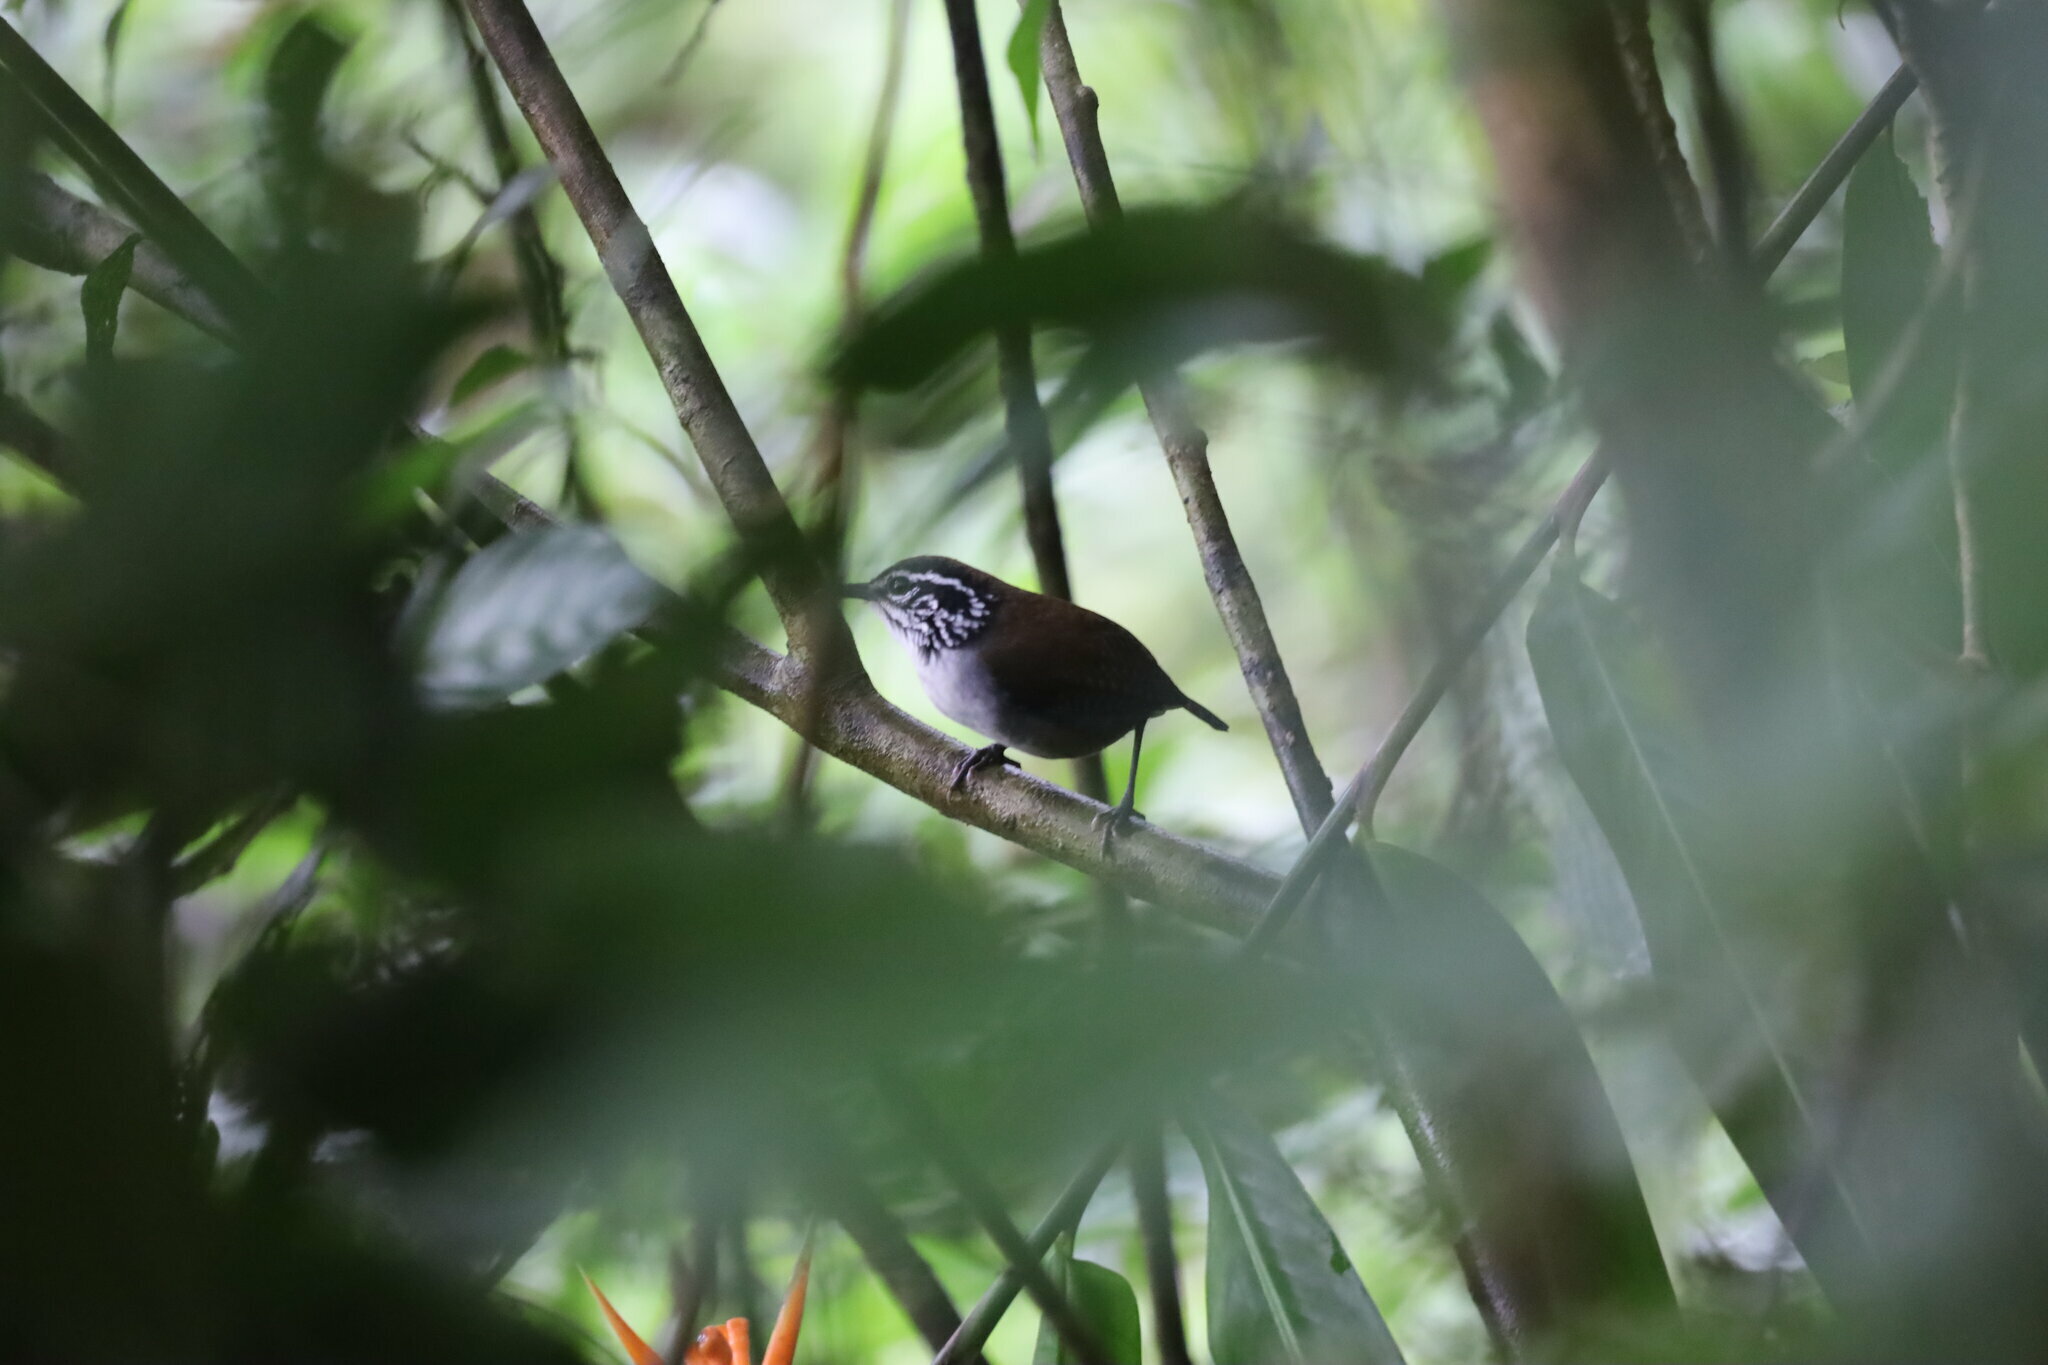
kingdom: Animalia
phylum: Chordata
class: Aves
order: Passeriformes
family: Troglodytidae
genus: Henicorhina
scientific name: Henicorhina leucosticta
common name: White-breasted wood-wren
